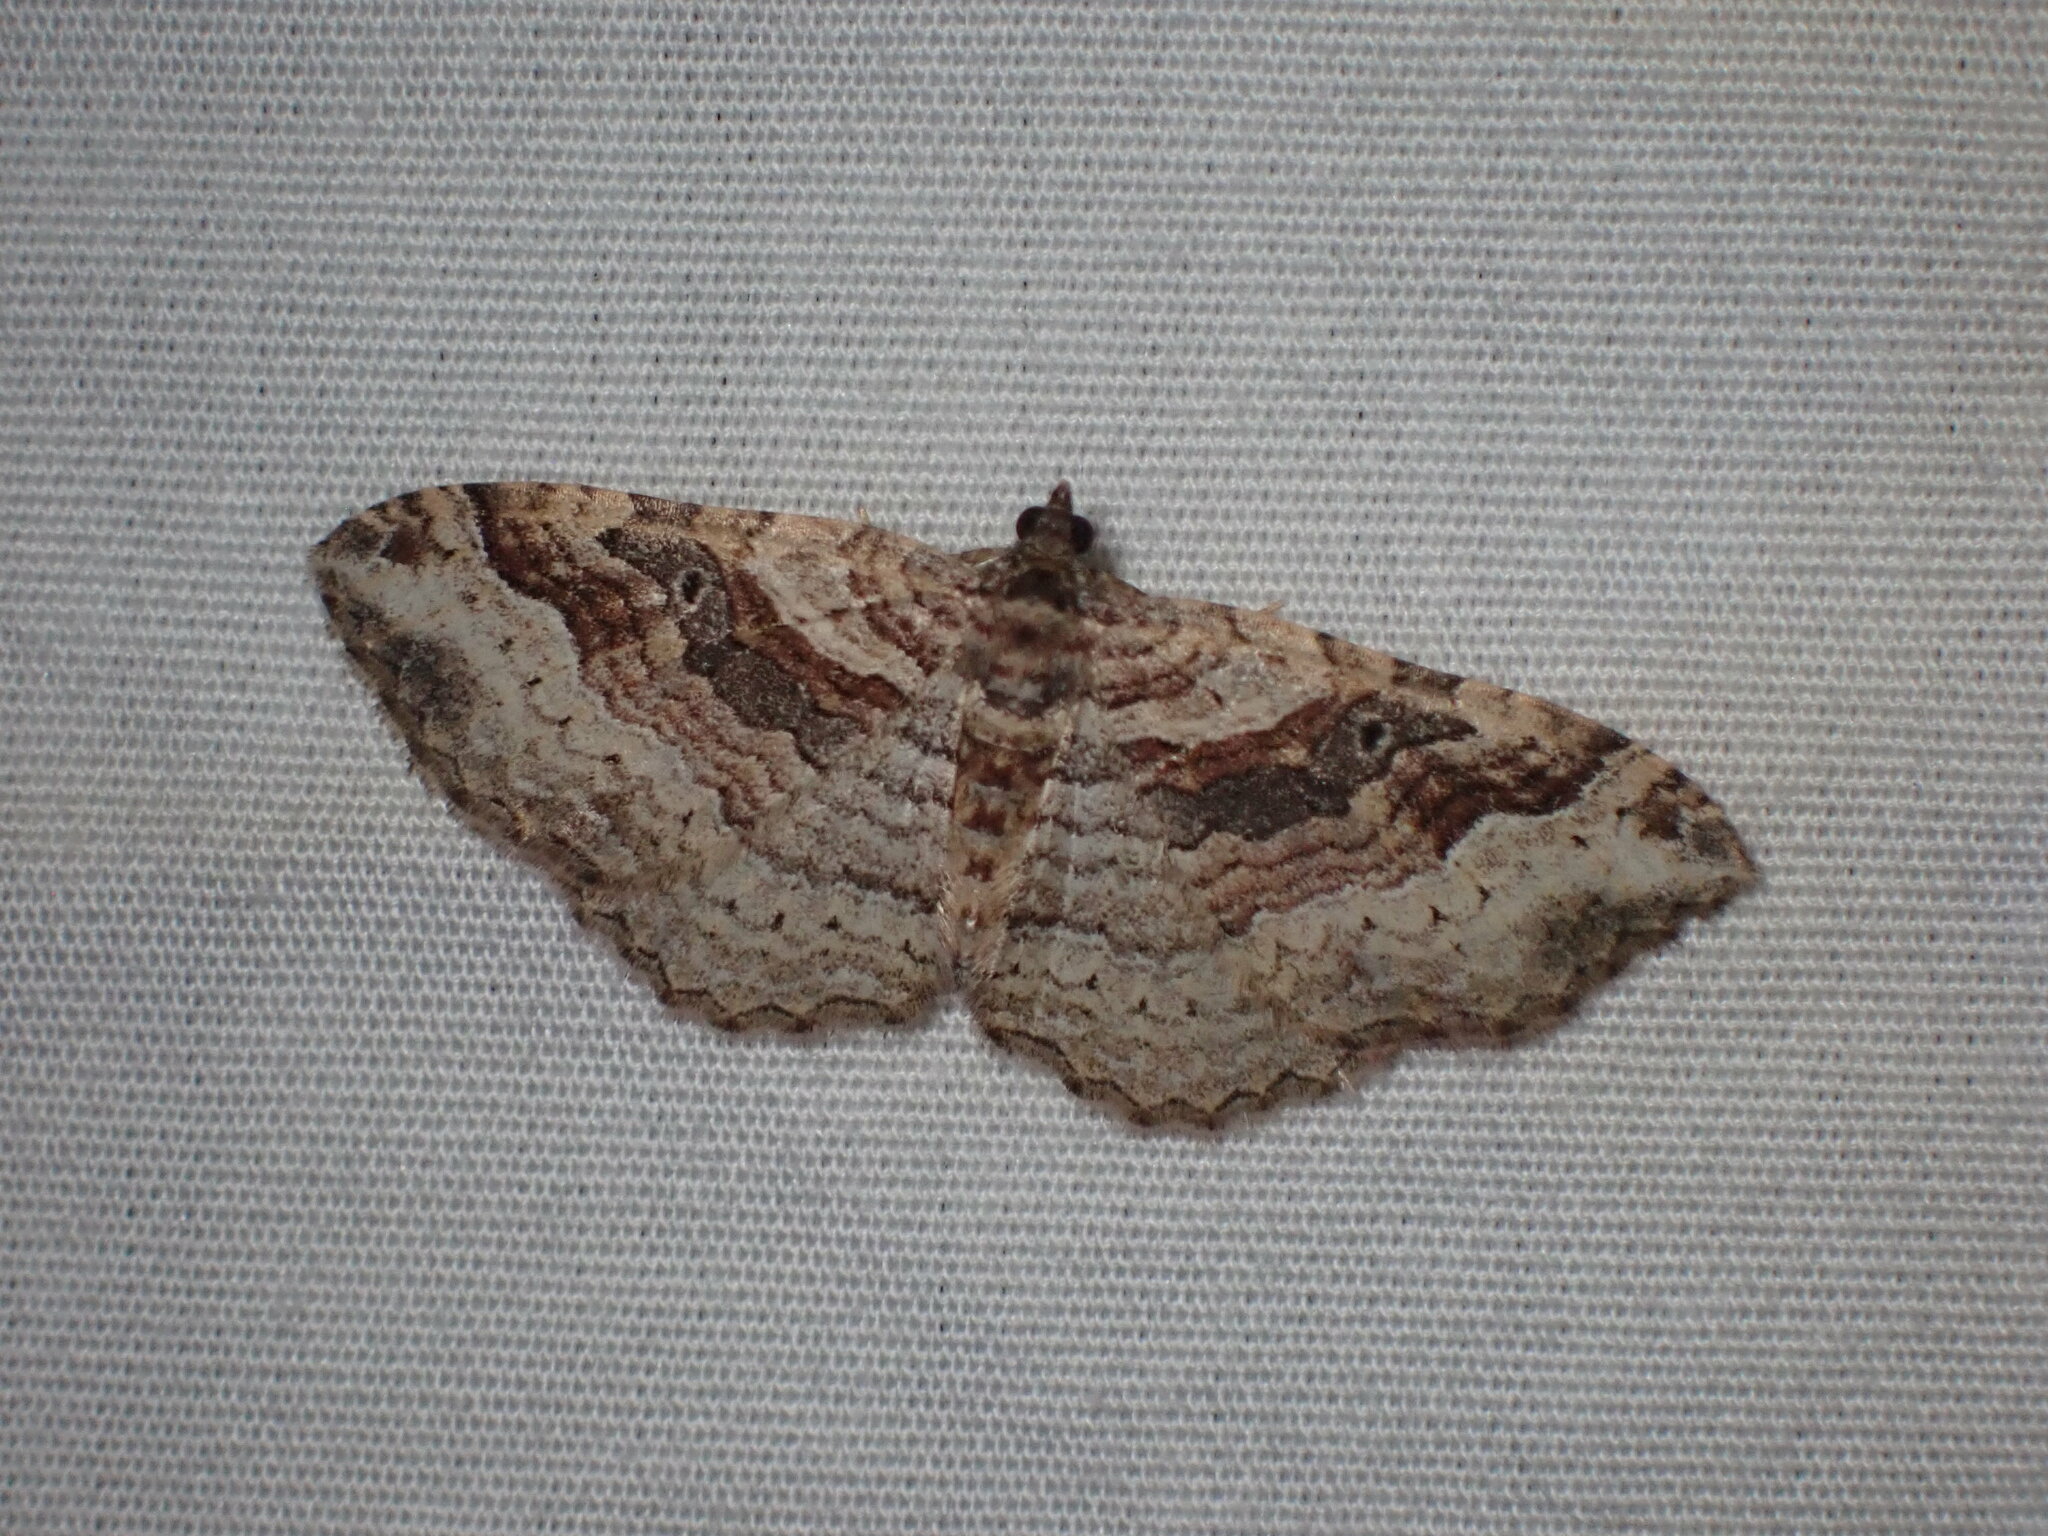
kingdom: Animalia
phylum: Arthropoda
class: Insecta
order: Lepidoptera
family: Geometridae
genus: Costaconvexa
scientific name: Costaconvexa centrostrigaria
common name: Bent-line carpet
